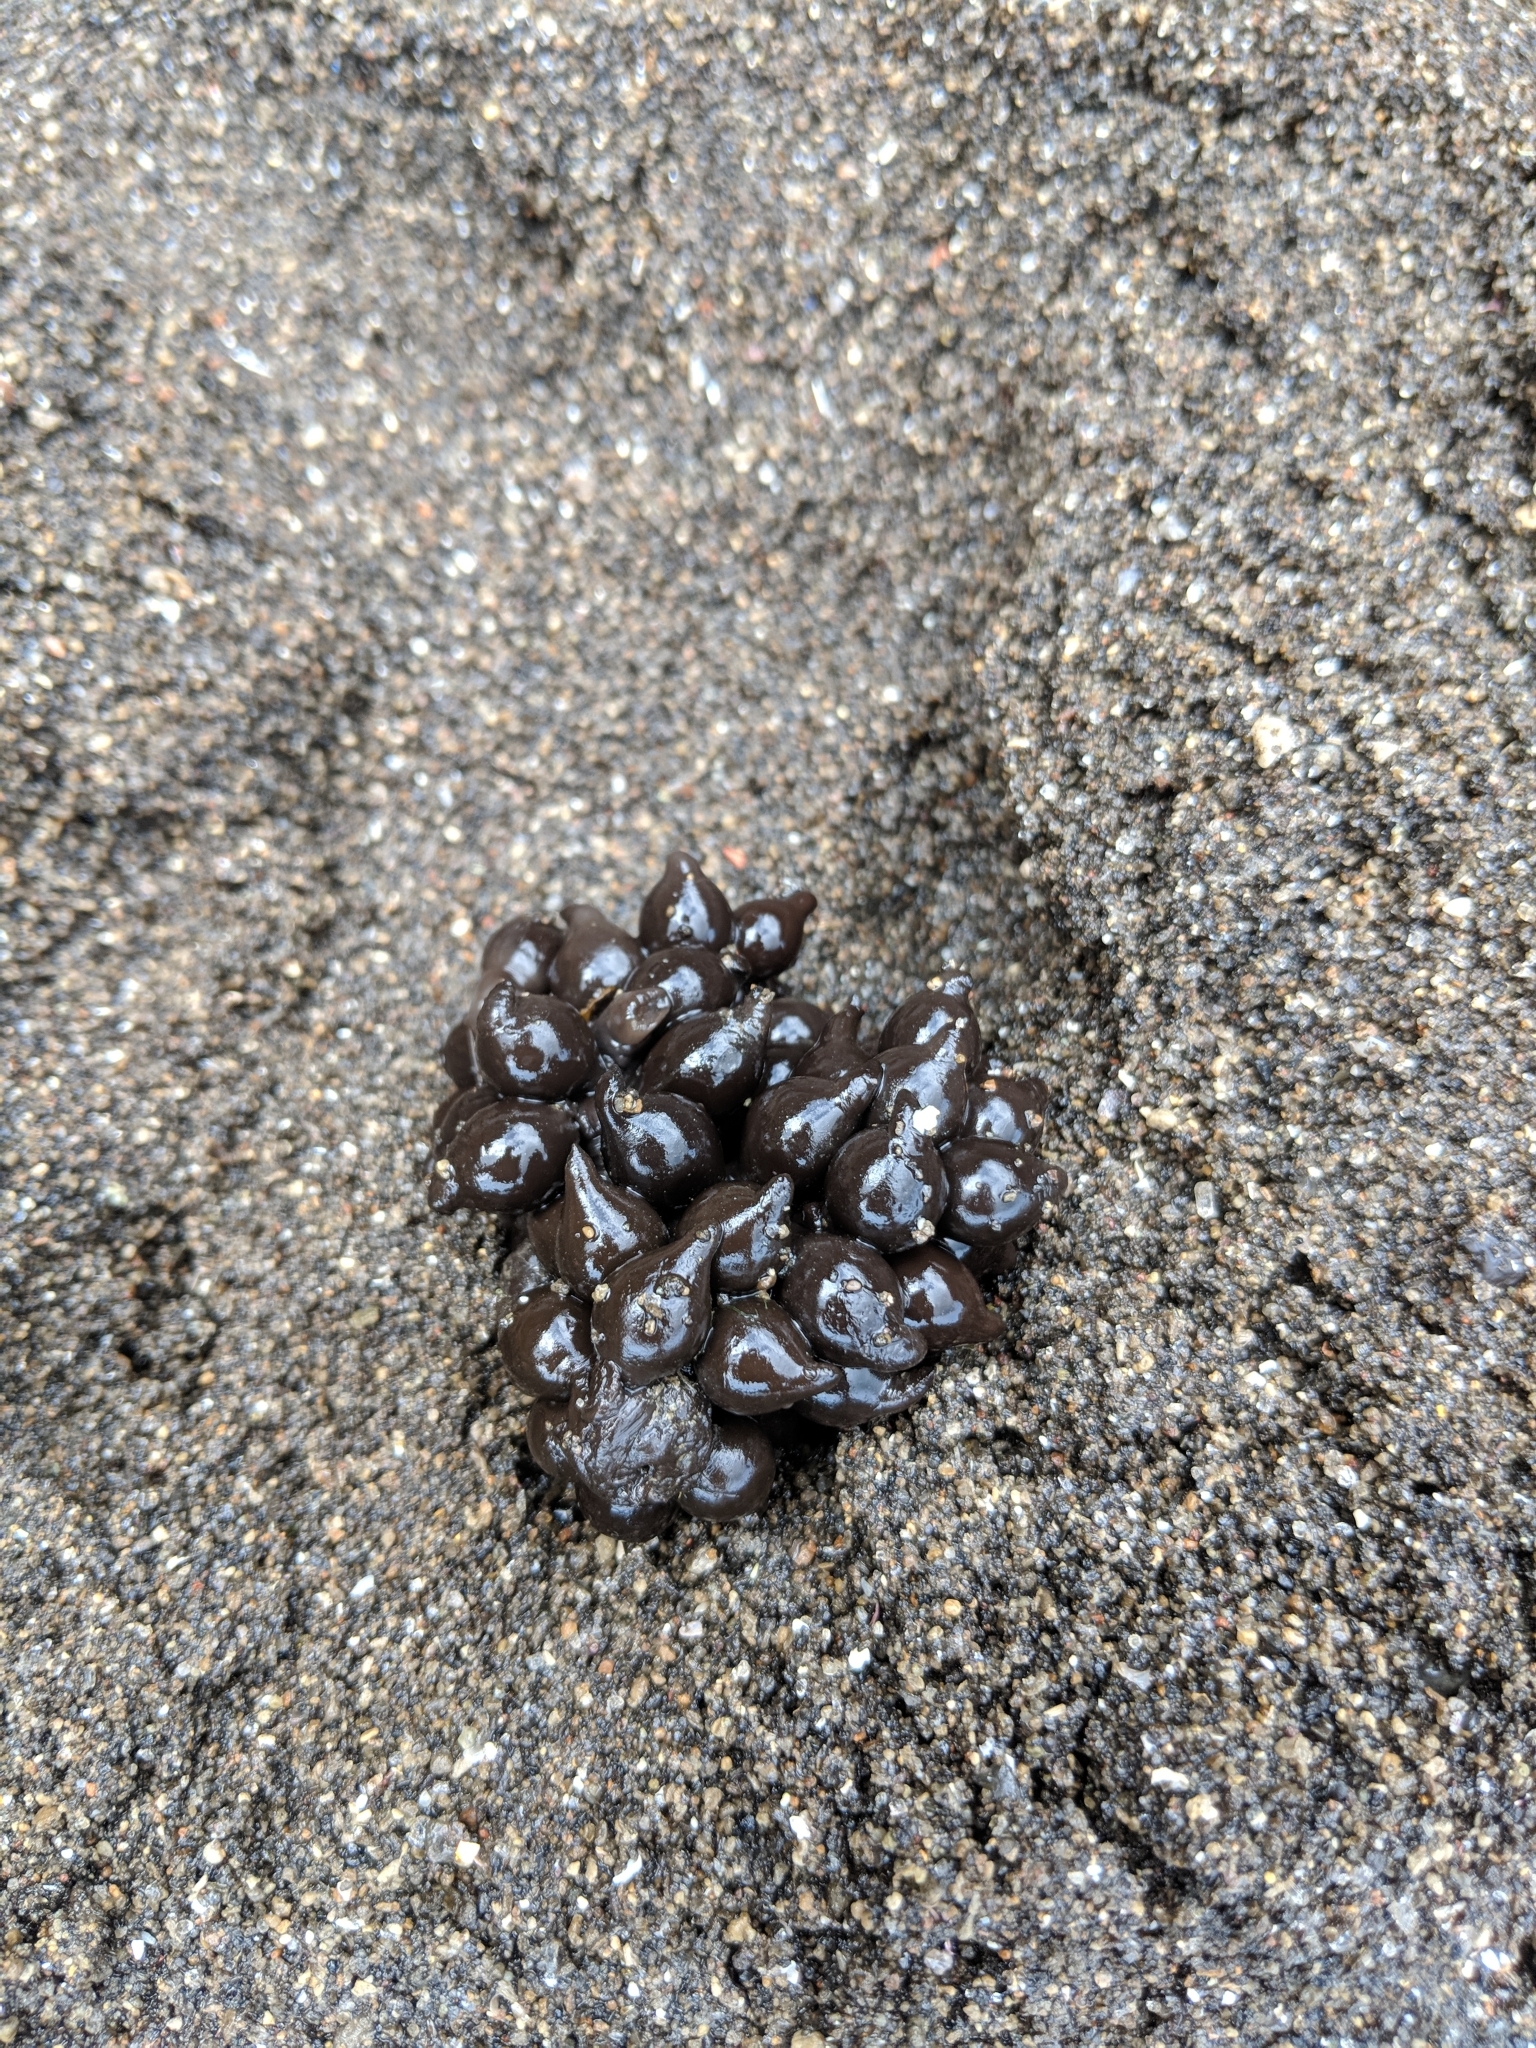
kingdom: Animalia
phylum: Mollusca
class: Cephalopoda
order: Sepiida
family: Sepiidae
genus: Sepia
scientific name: Sepia officinalis
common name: Common cuttlefish
